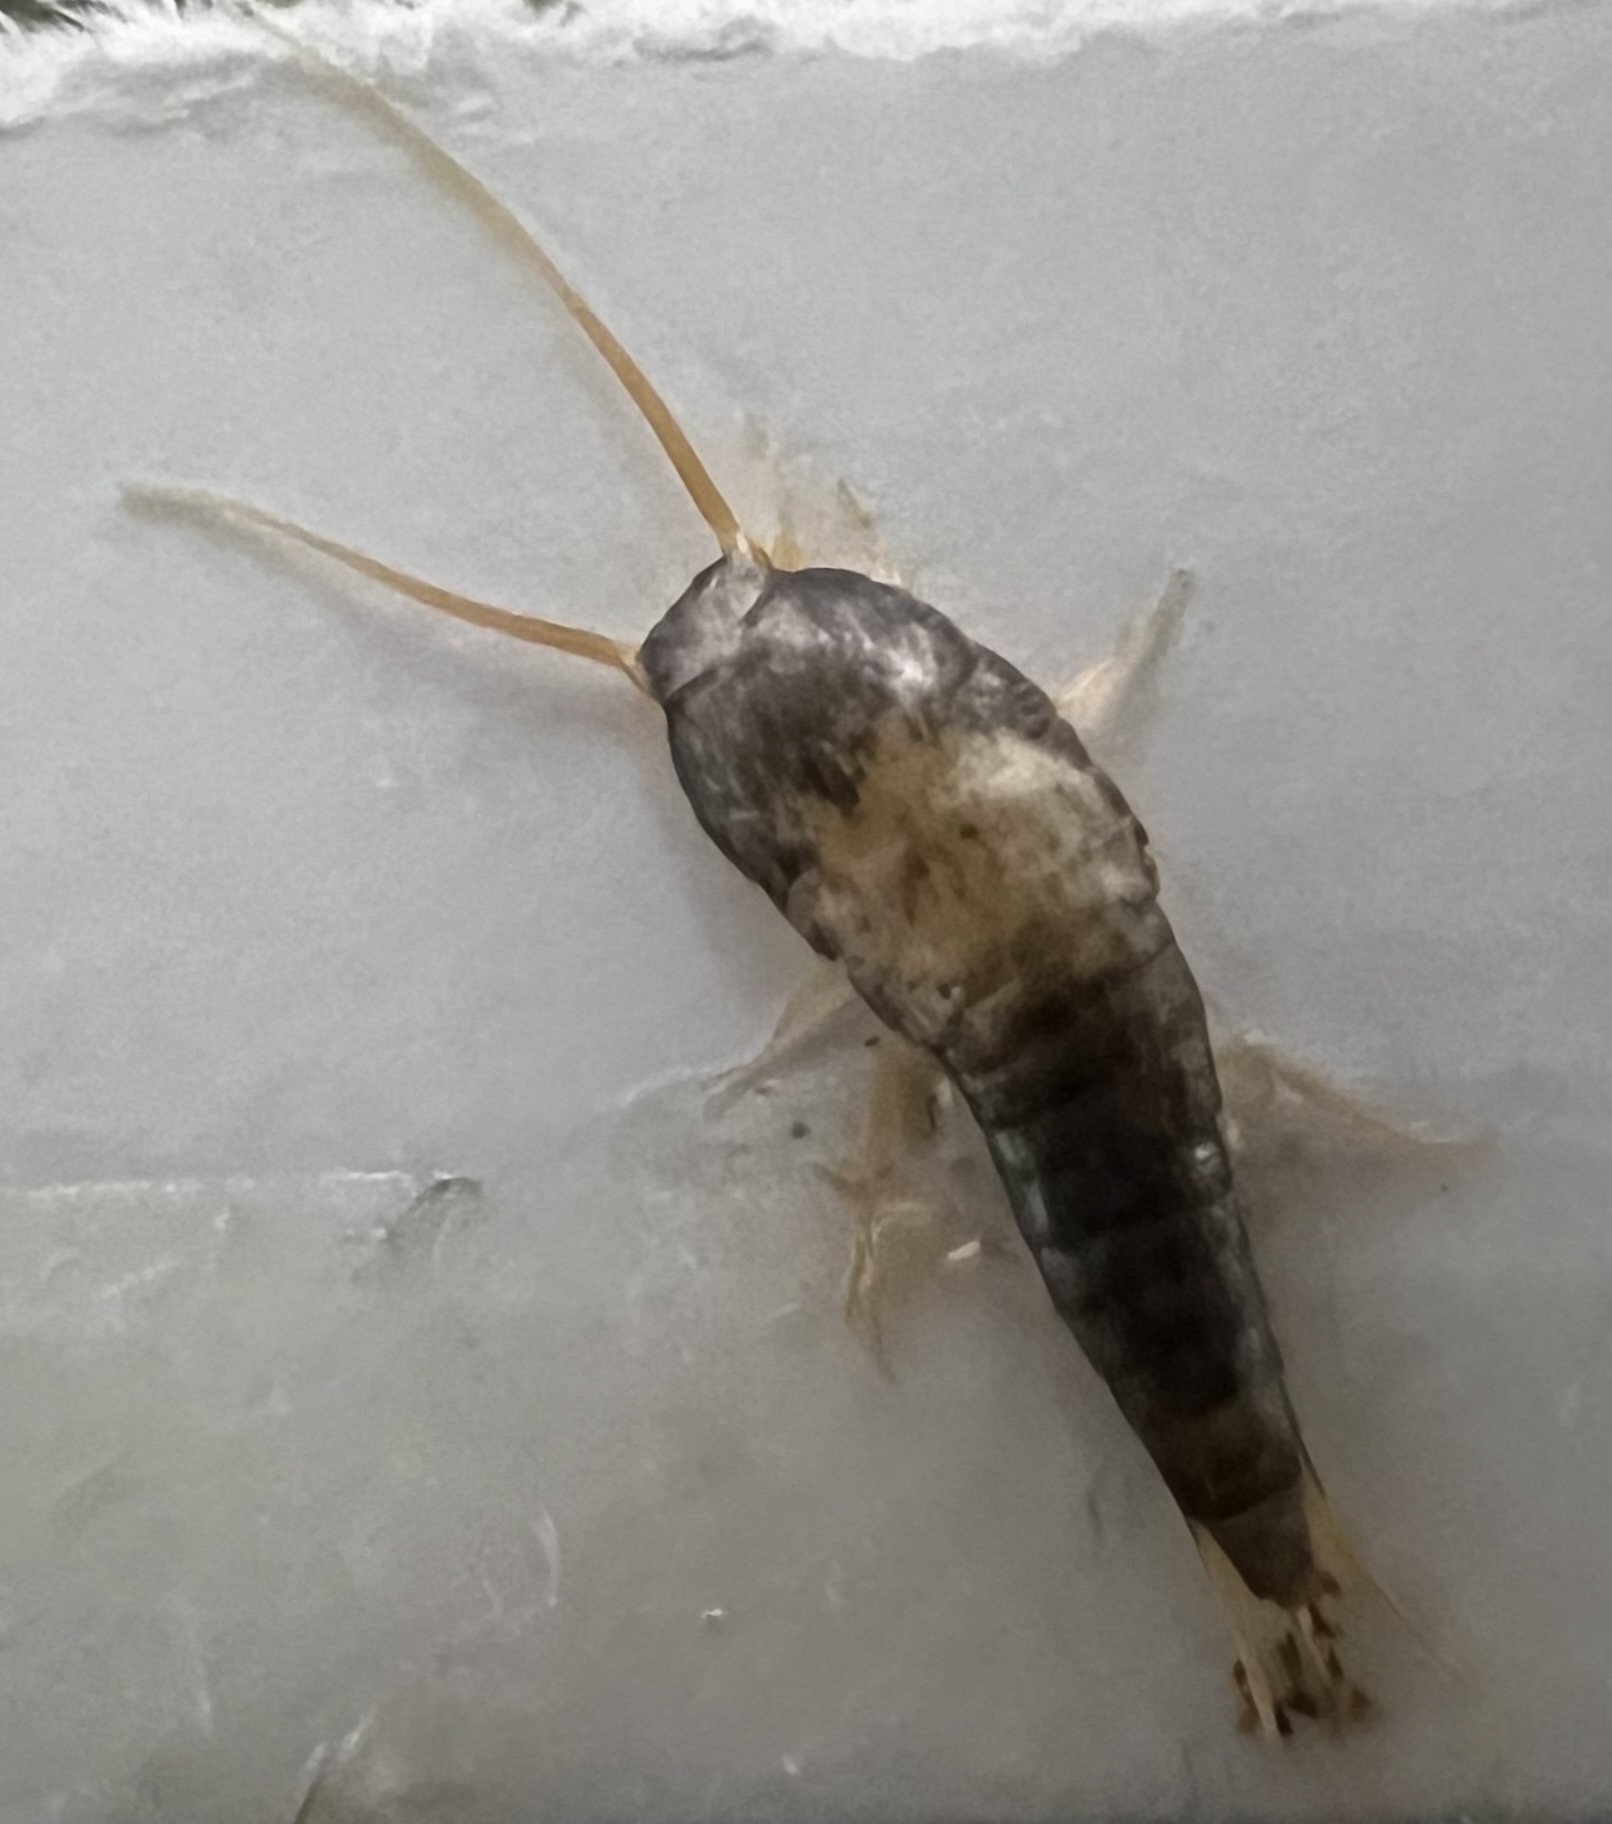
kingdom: Animalia
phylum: Arthropoda
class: Insecta
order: Zygentoma
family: Lepismatidae
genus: Lepisma
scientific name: Lepisma saccharinum
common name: Silverfish
